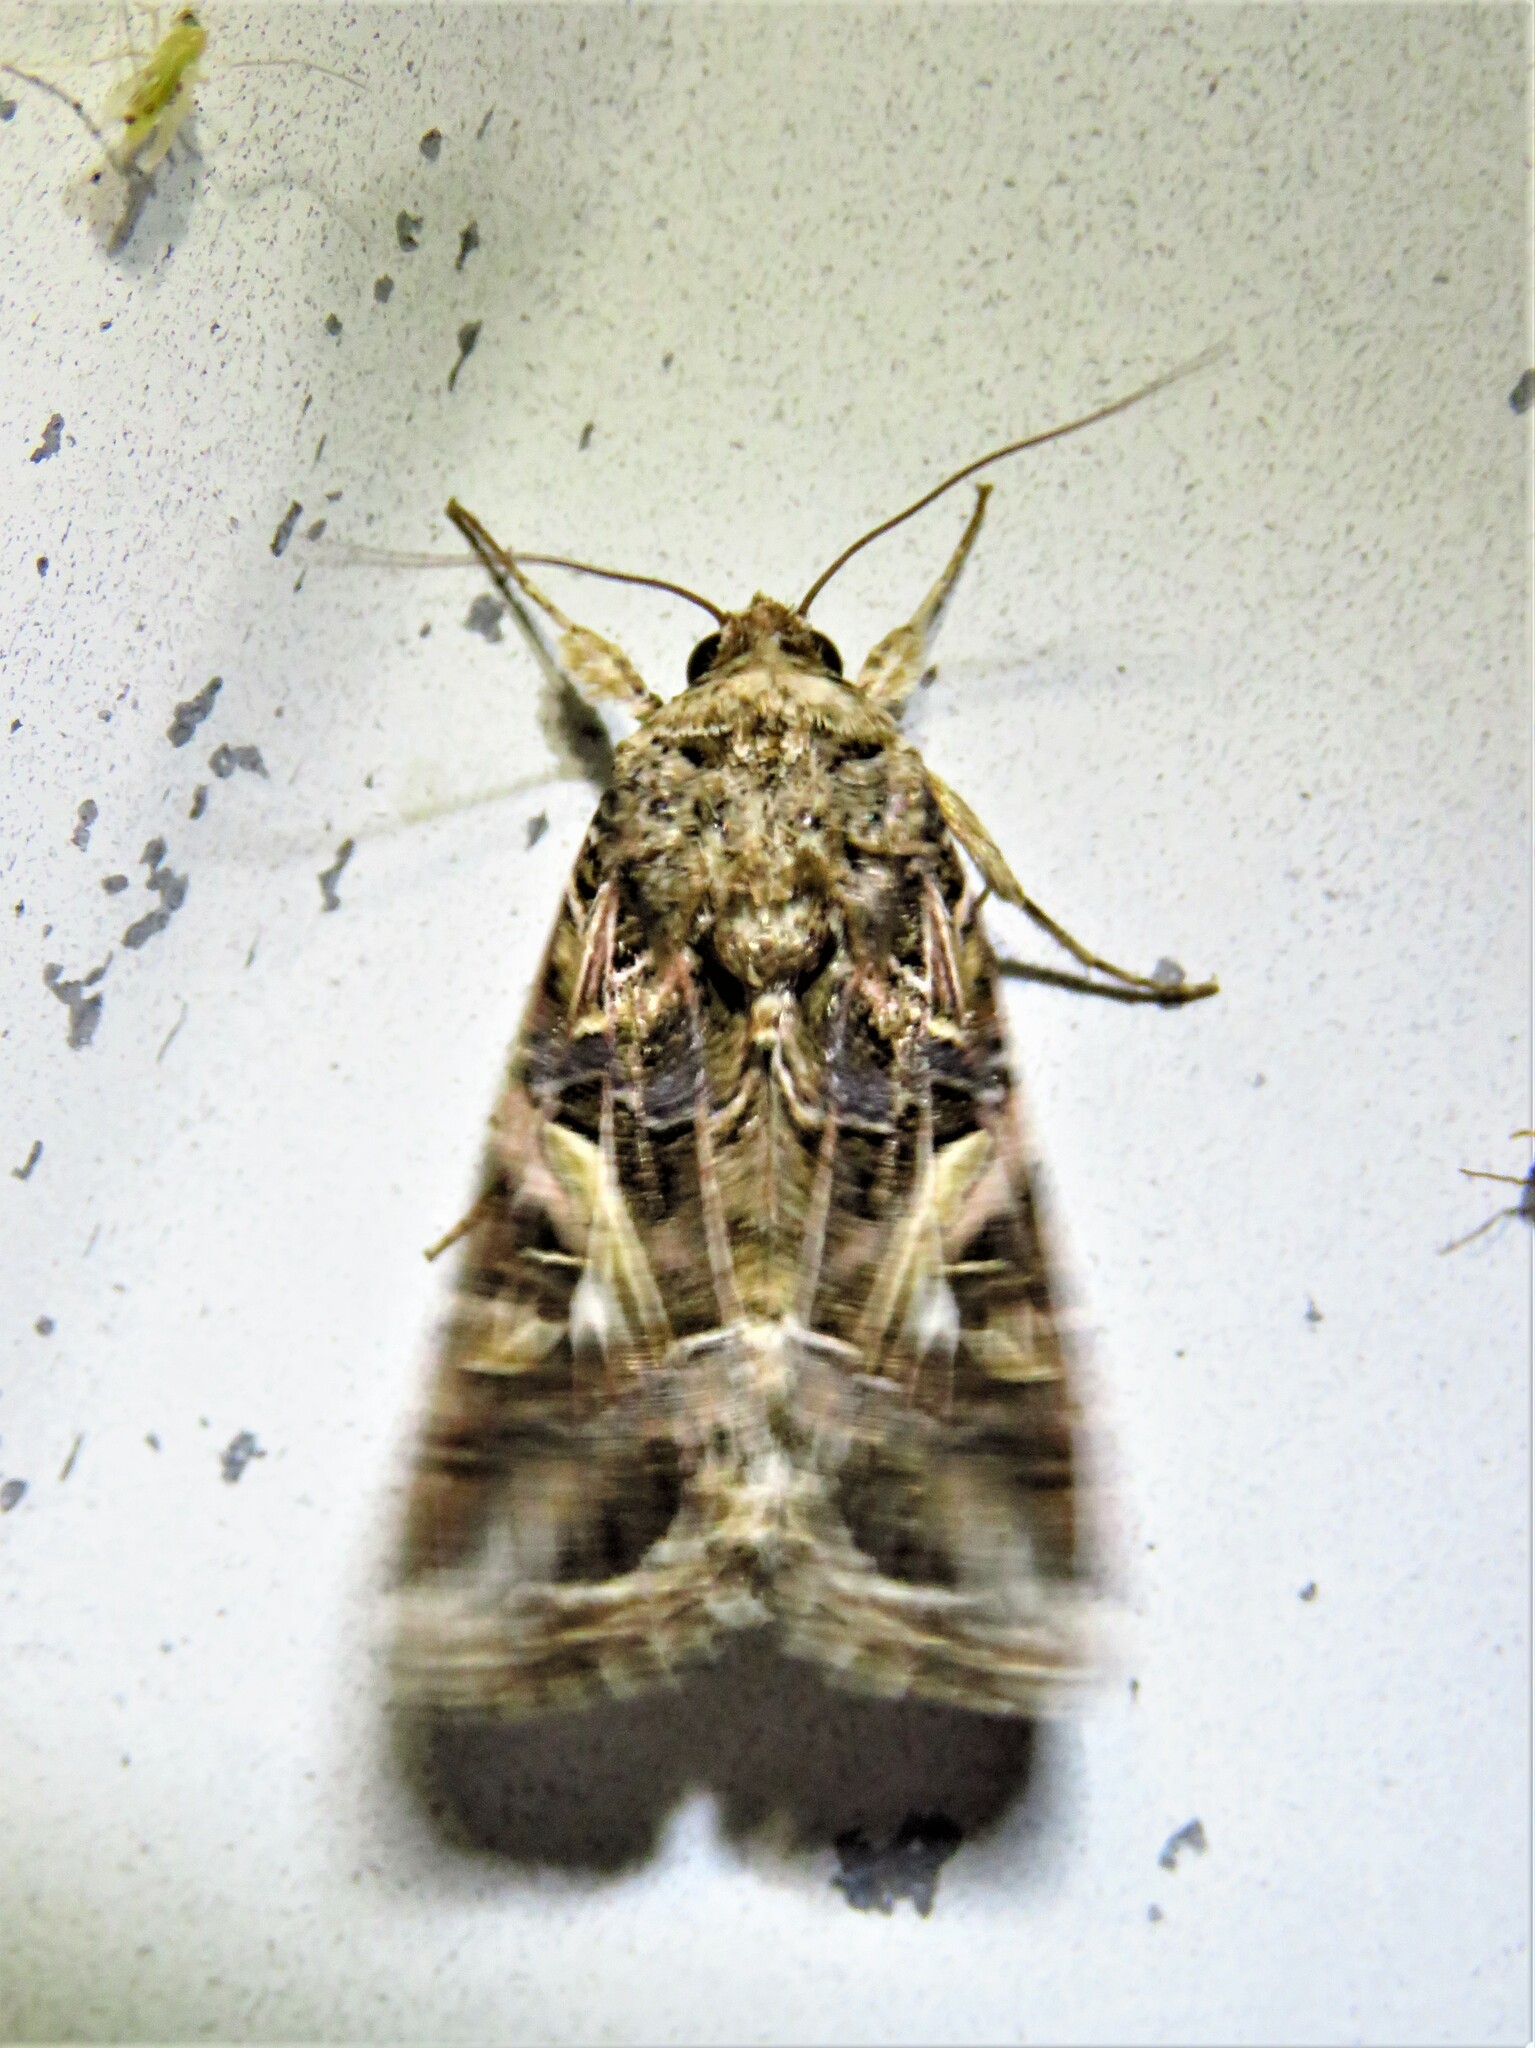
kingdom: Animalia
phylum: Arthropoda
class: Insecta
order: Lepidoptera
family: Noctuidae
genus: Spodoptera
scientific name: Spodoptera ornithogalli
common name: Yellow-striped armyworm
